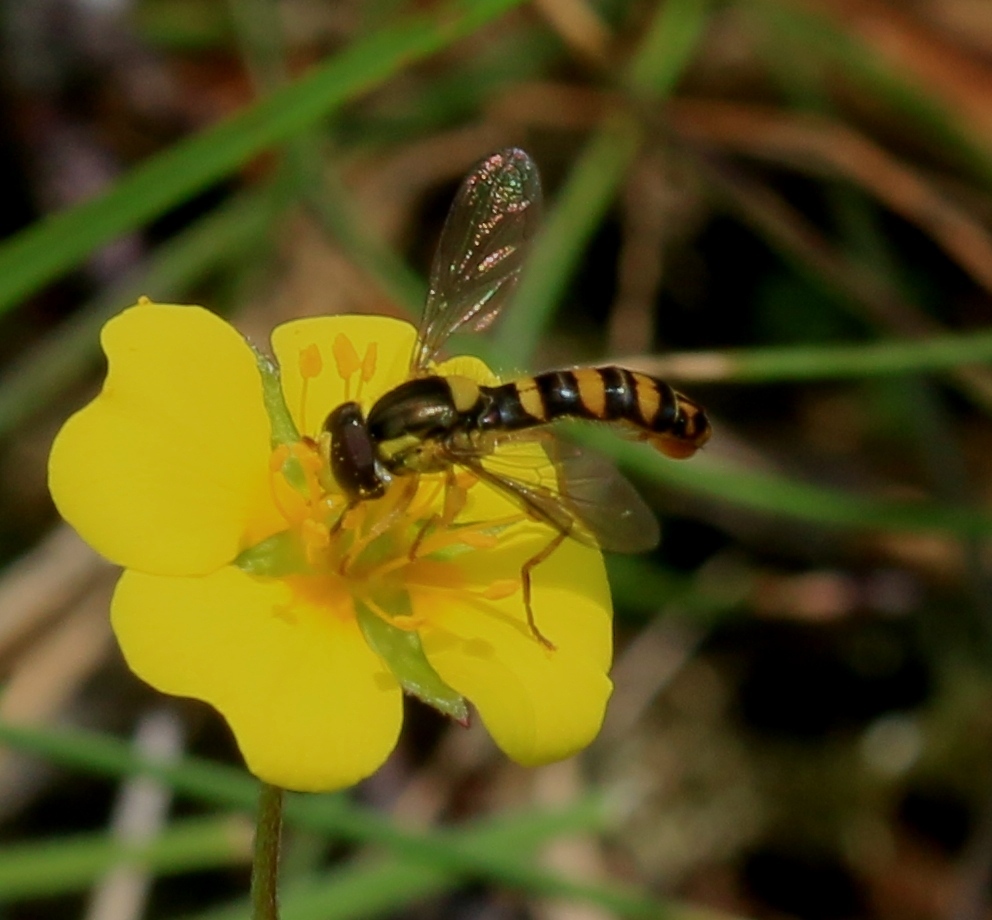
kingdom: Animalia
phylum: Arthropoda
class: Insecta
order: Diptera
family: Syrphidae
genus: Sphaerophoria
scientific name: Sphaerophoria
